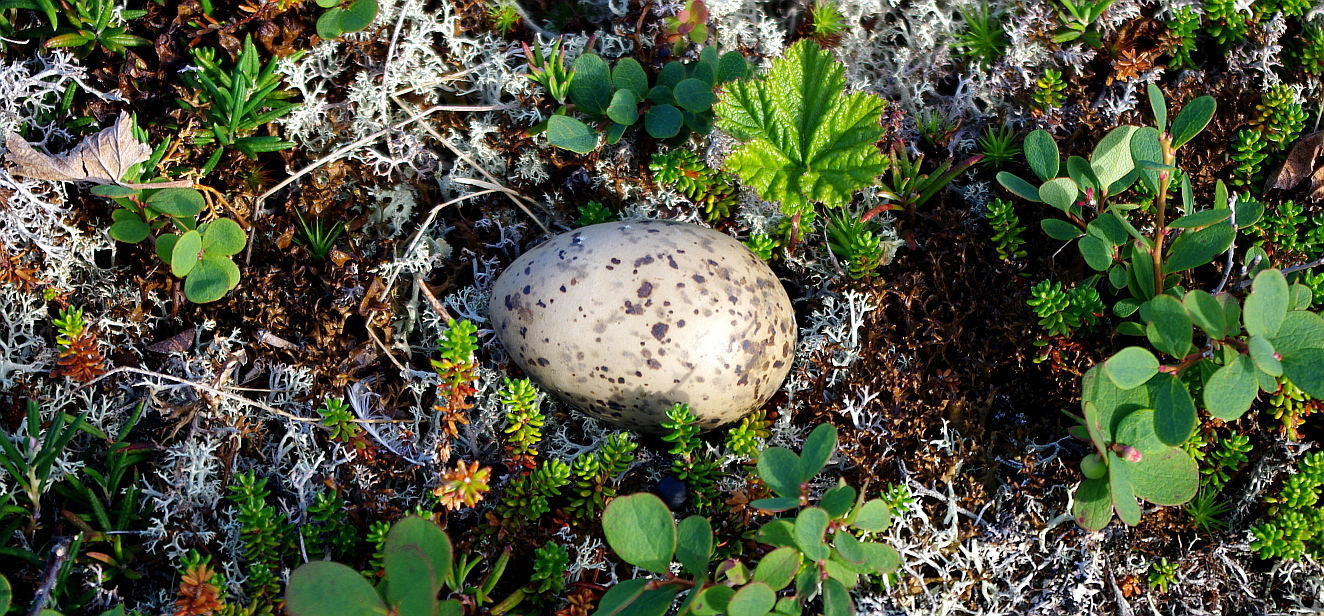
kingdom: Animalia
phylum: Chordata
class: Aves
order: Charadriiformes
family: Laridae
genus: Larus
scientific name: Larus canus
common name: Mew gull
